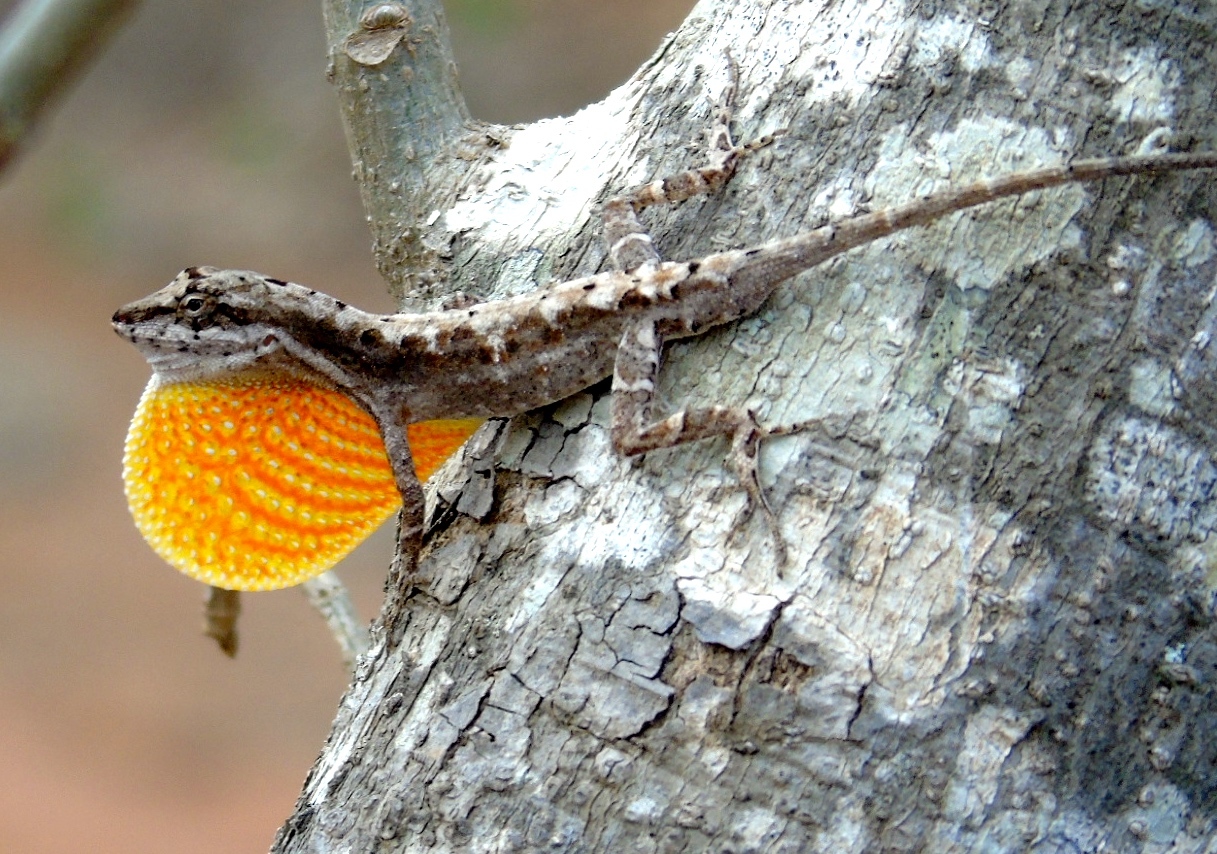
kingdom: Animalia
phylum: Chordata
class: Squamata
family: Dactyloidae
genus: Anolis
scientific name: Anolis nebulosus
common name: Clouded anole
